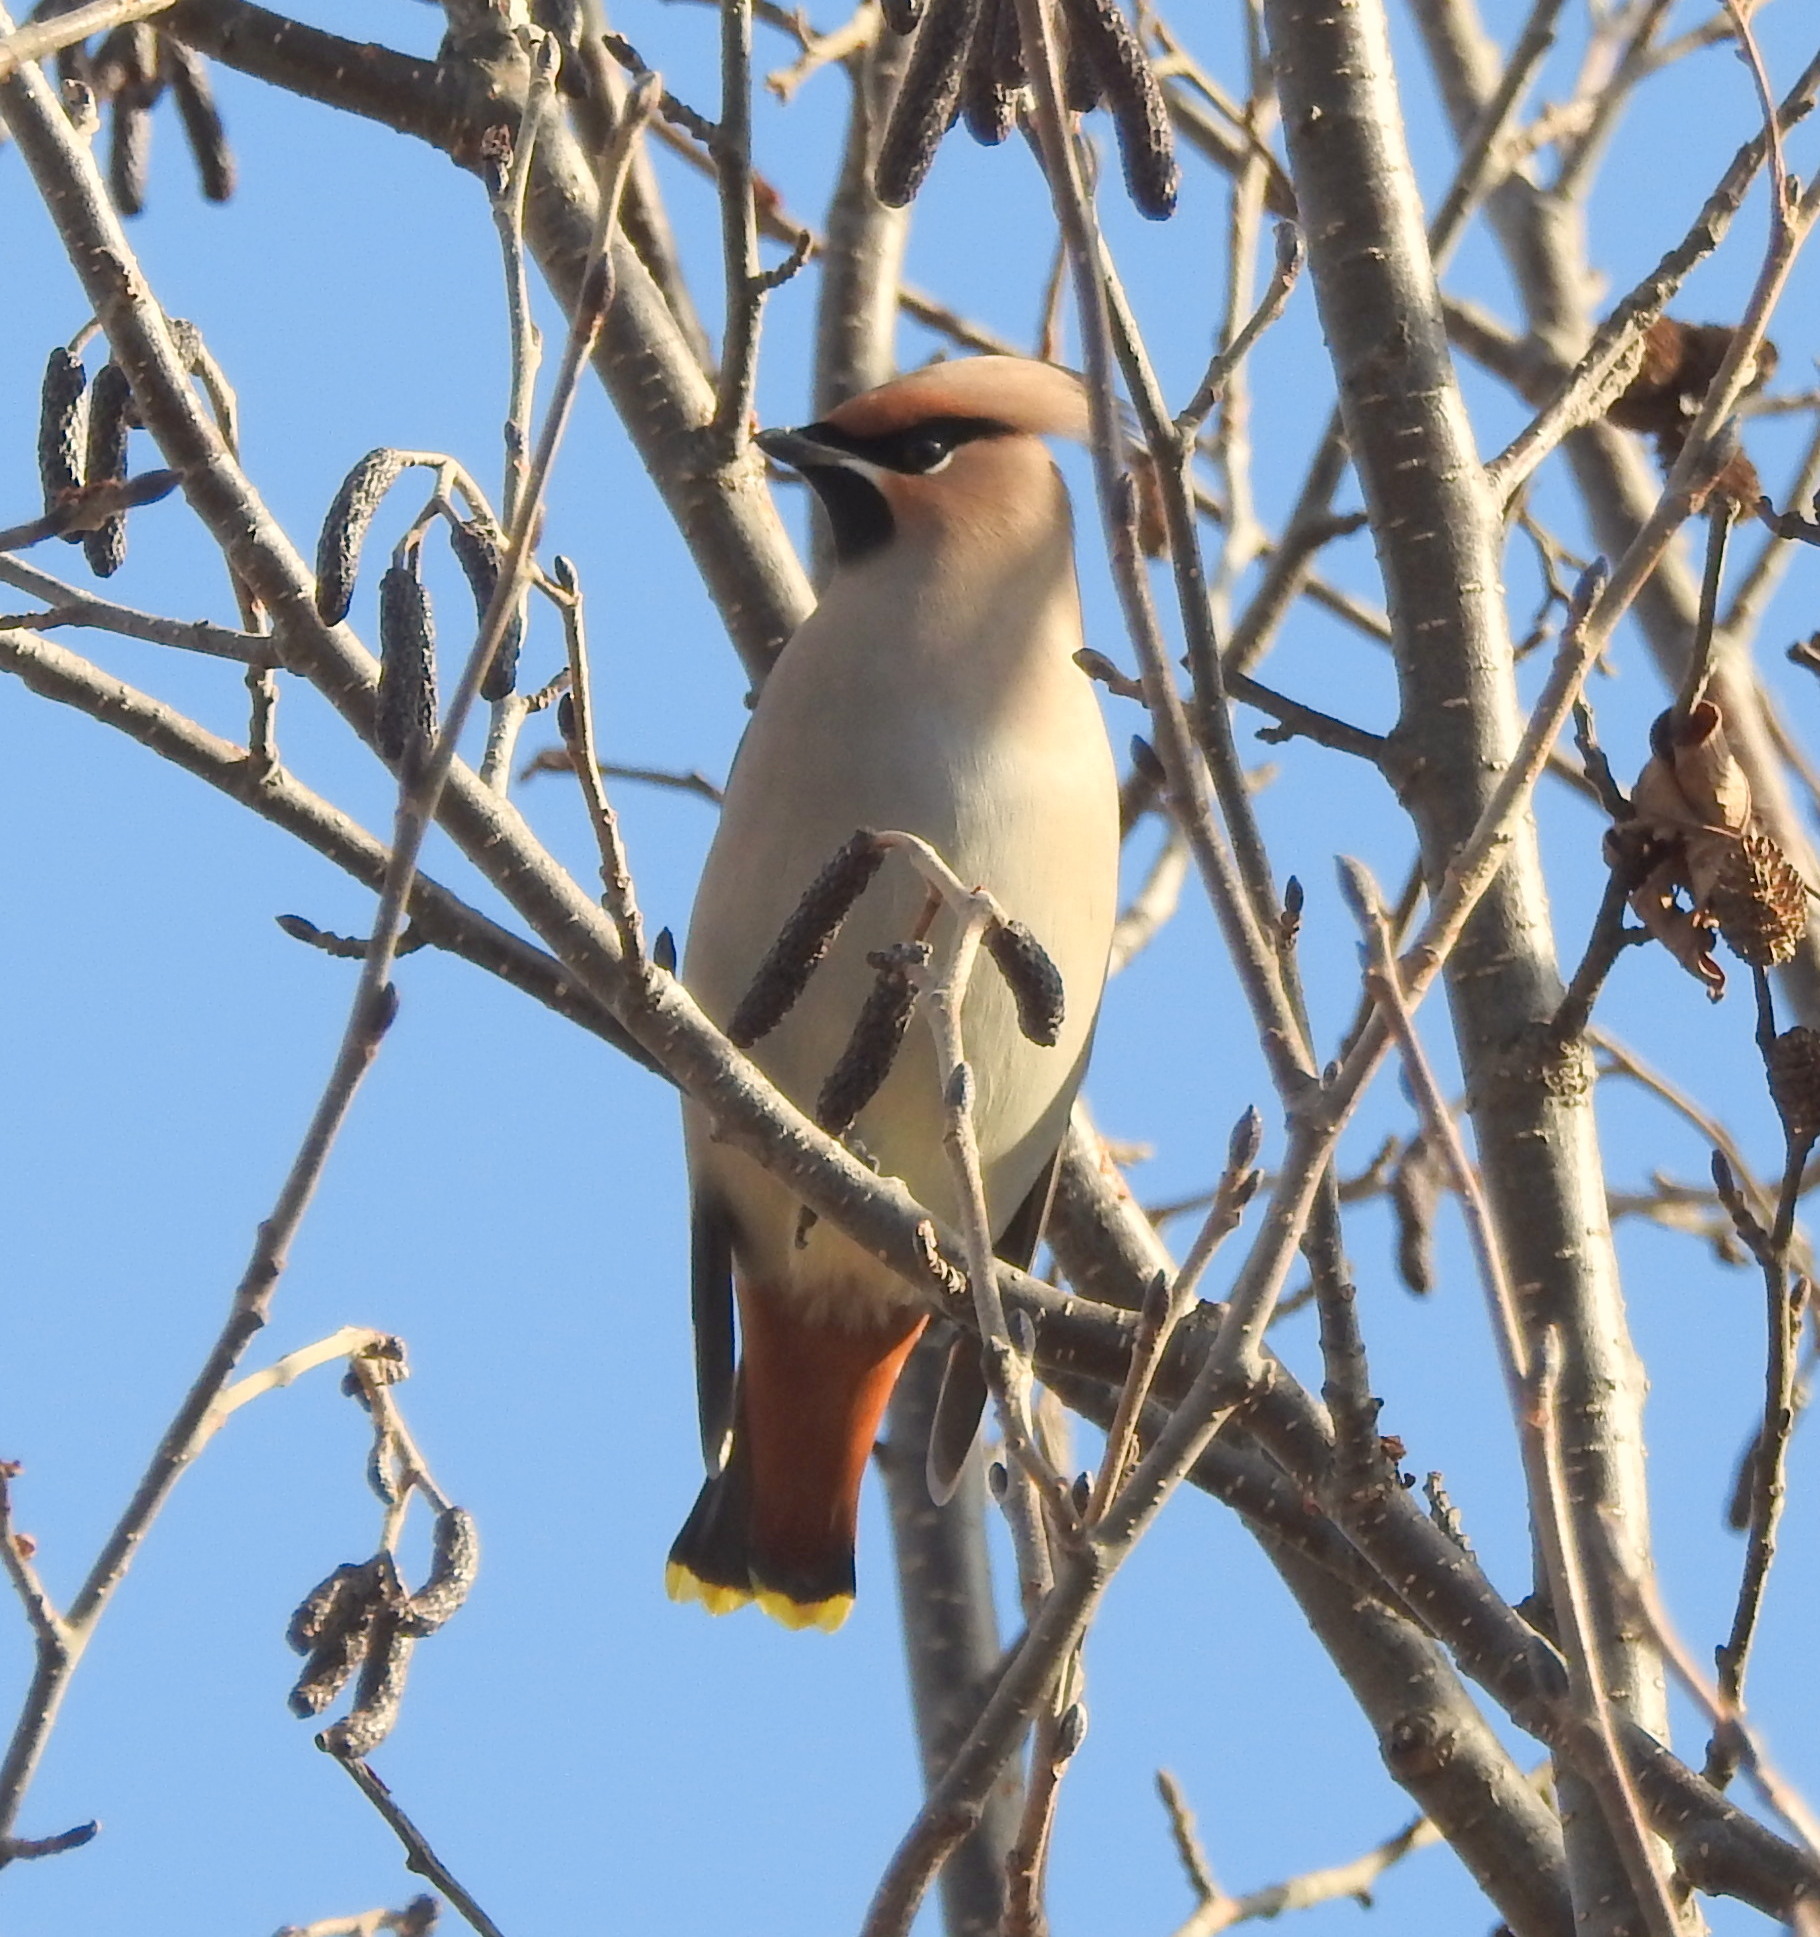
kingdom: Animalia
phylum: Chordata
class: Aves
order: Passeriformes
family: Bombycillidae
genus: Bombycilla
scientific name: Bombycilla garrulus
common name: Bohemian waxwing
